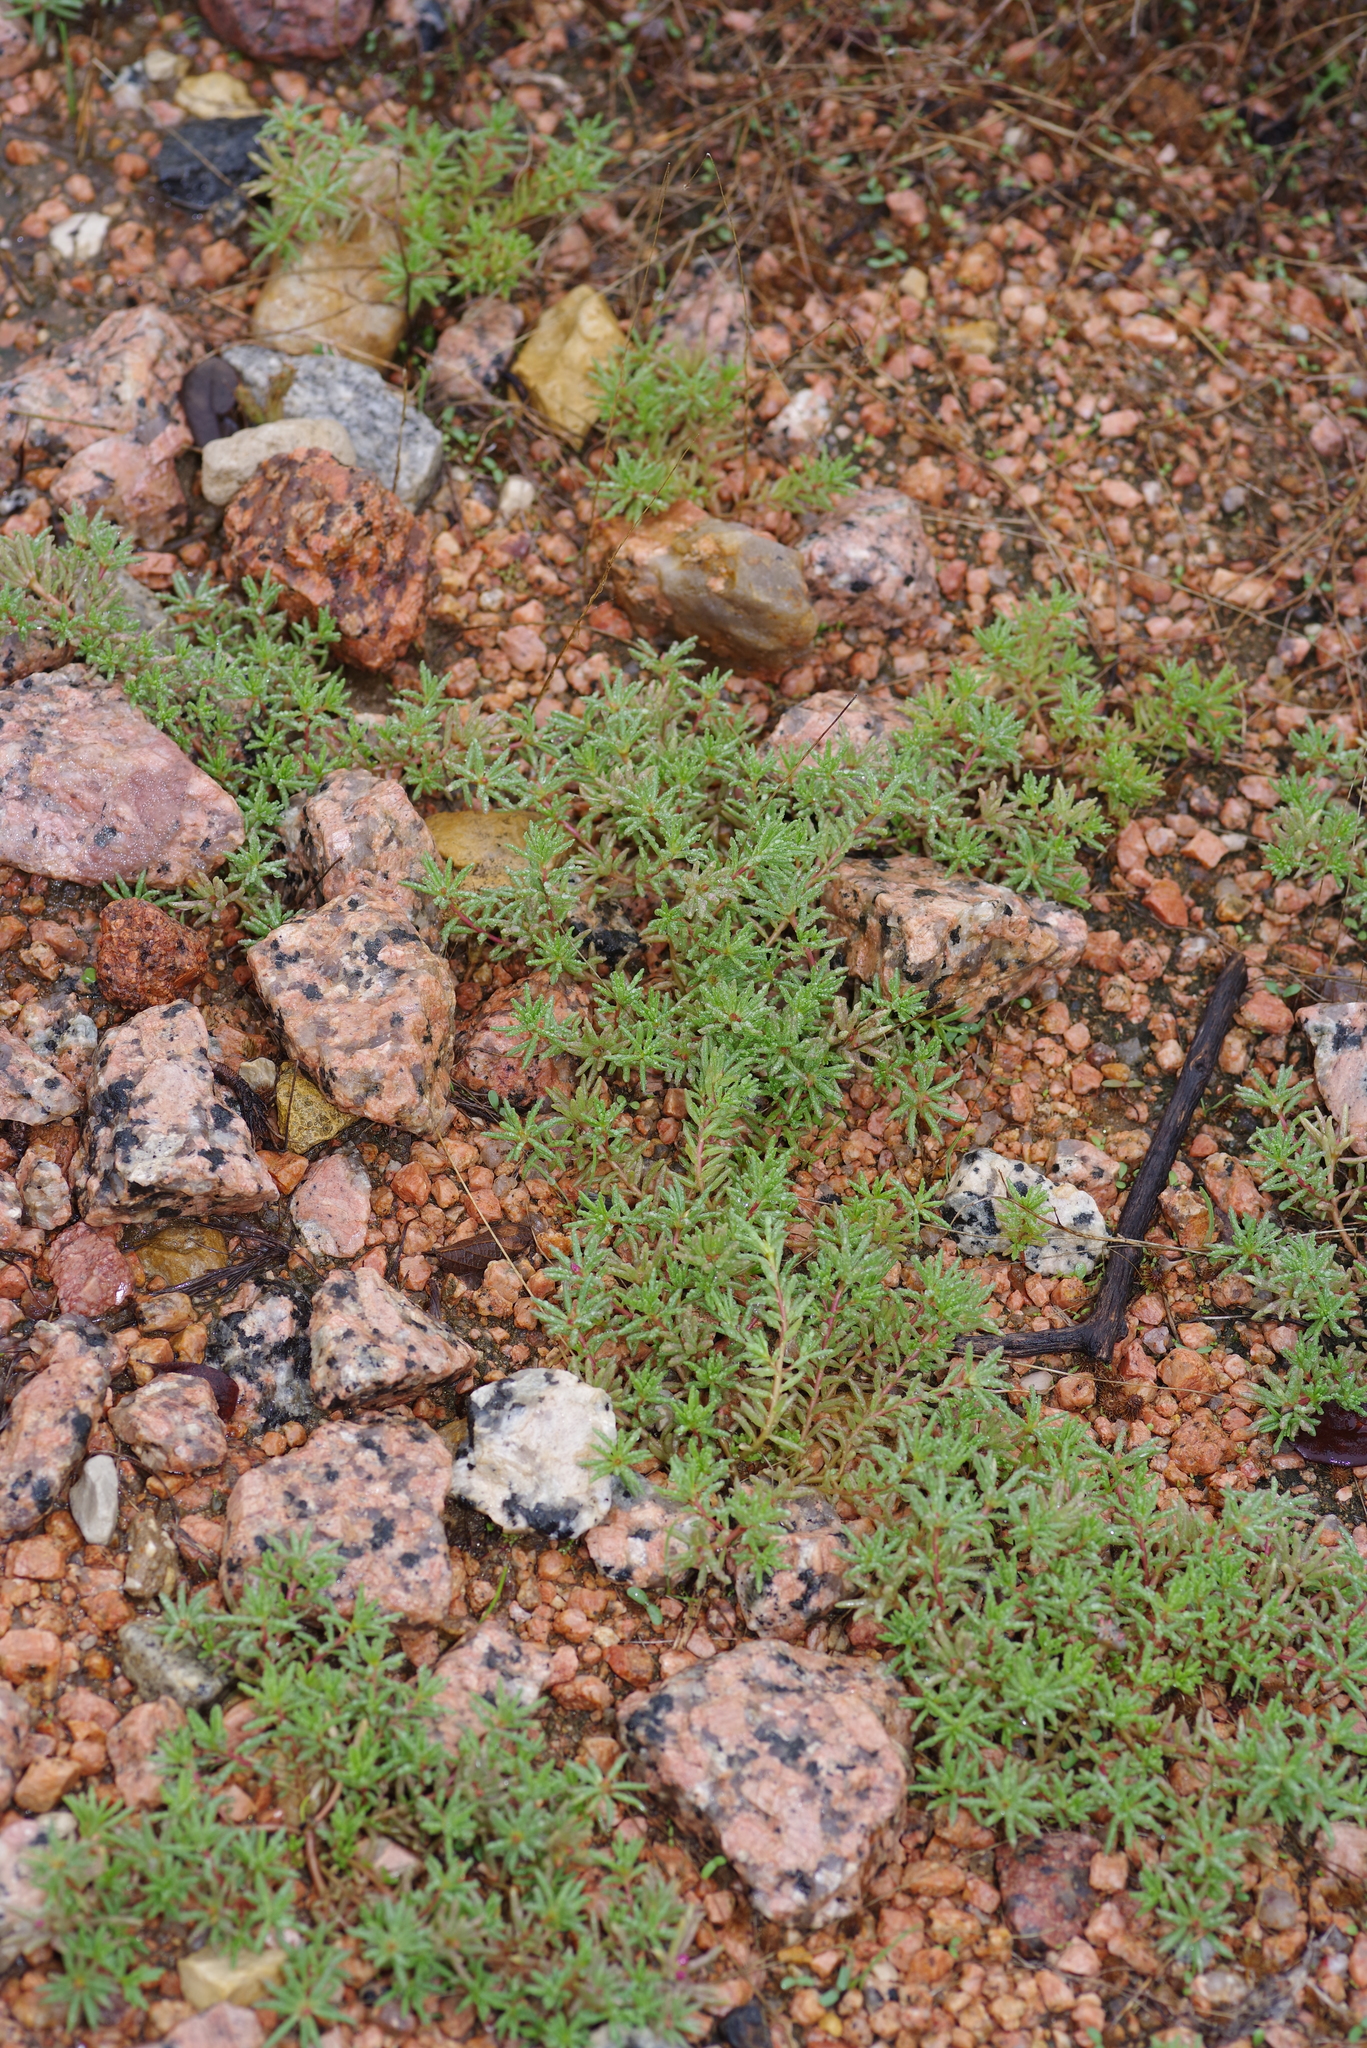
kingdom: Plantae
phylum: Tracheophyta
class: Magnoliopsida
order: Caryophyllales
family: Portulacaceae
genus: Portulaca
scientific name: Portulaca pilosa
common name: Kiss me quick
